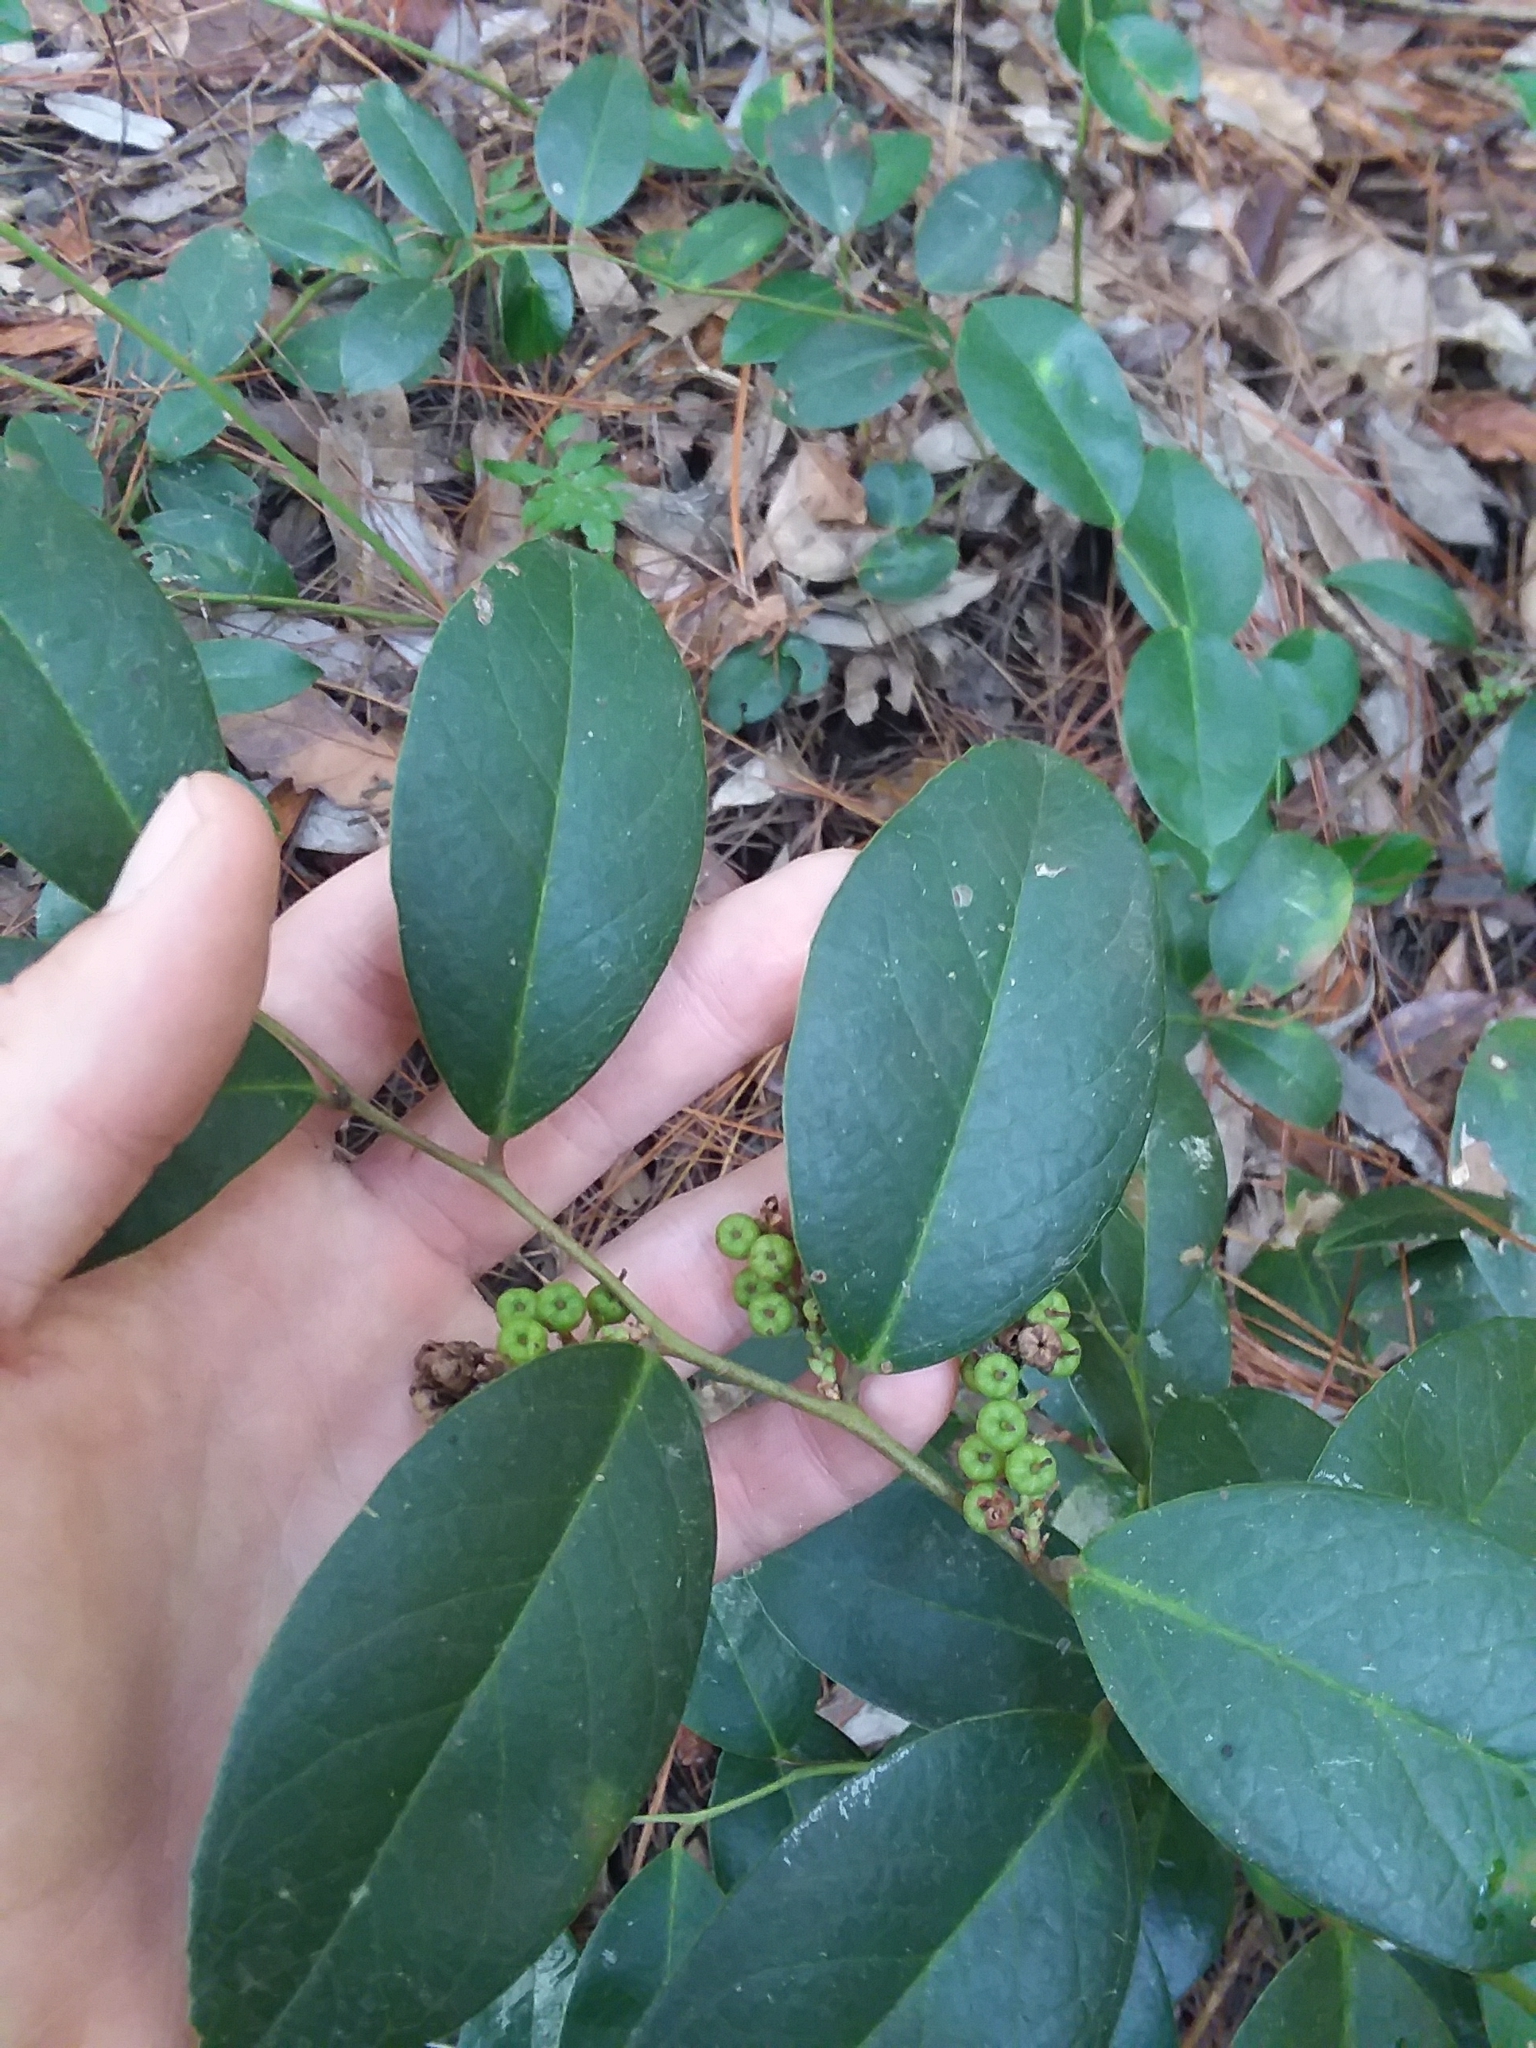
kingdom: Plantae
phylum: Tracheophyta
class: Magnoliopsida
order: Ericales
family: Ericaceae
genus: Leucothoe
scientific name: Leucothoe axillaris
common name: Leucothoe
